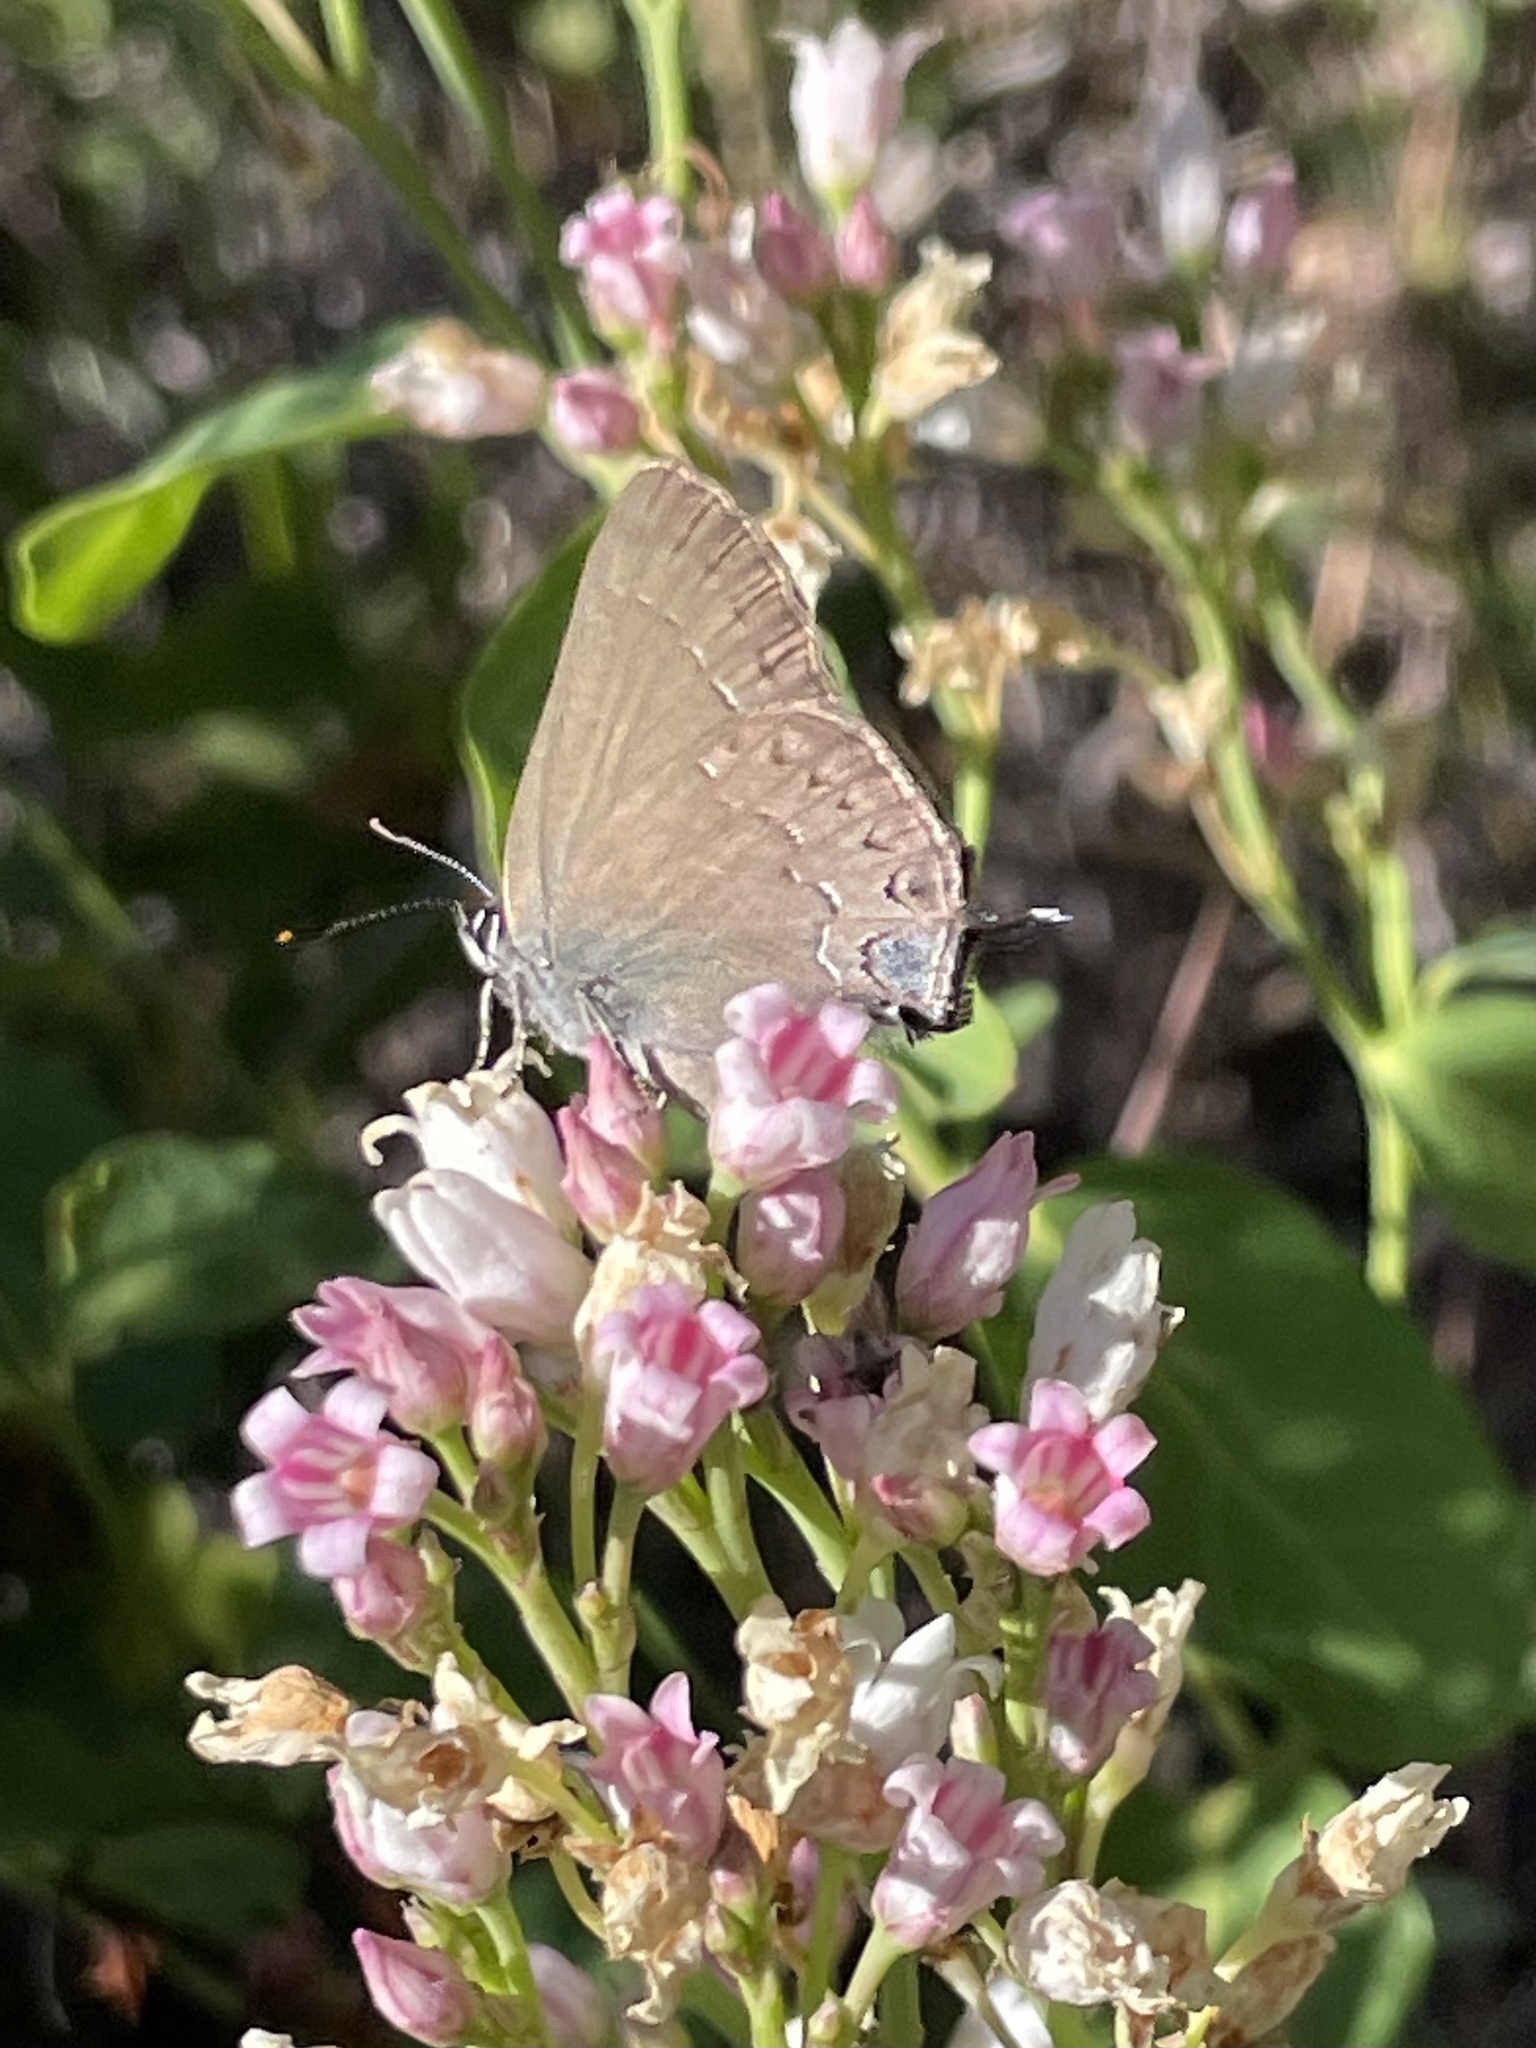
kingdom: Animalia
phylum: Arthropoda
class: Insecta
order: Lepidoptera
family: Lycaenidae
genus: Strymon
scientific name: Strymon saepium
